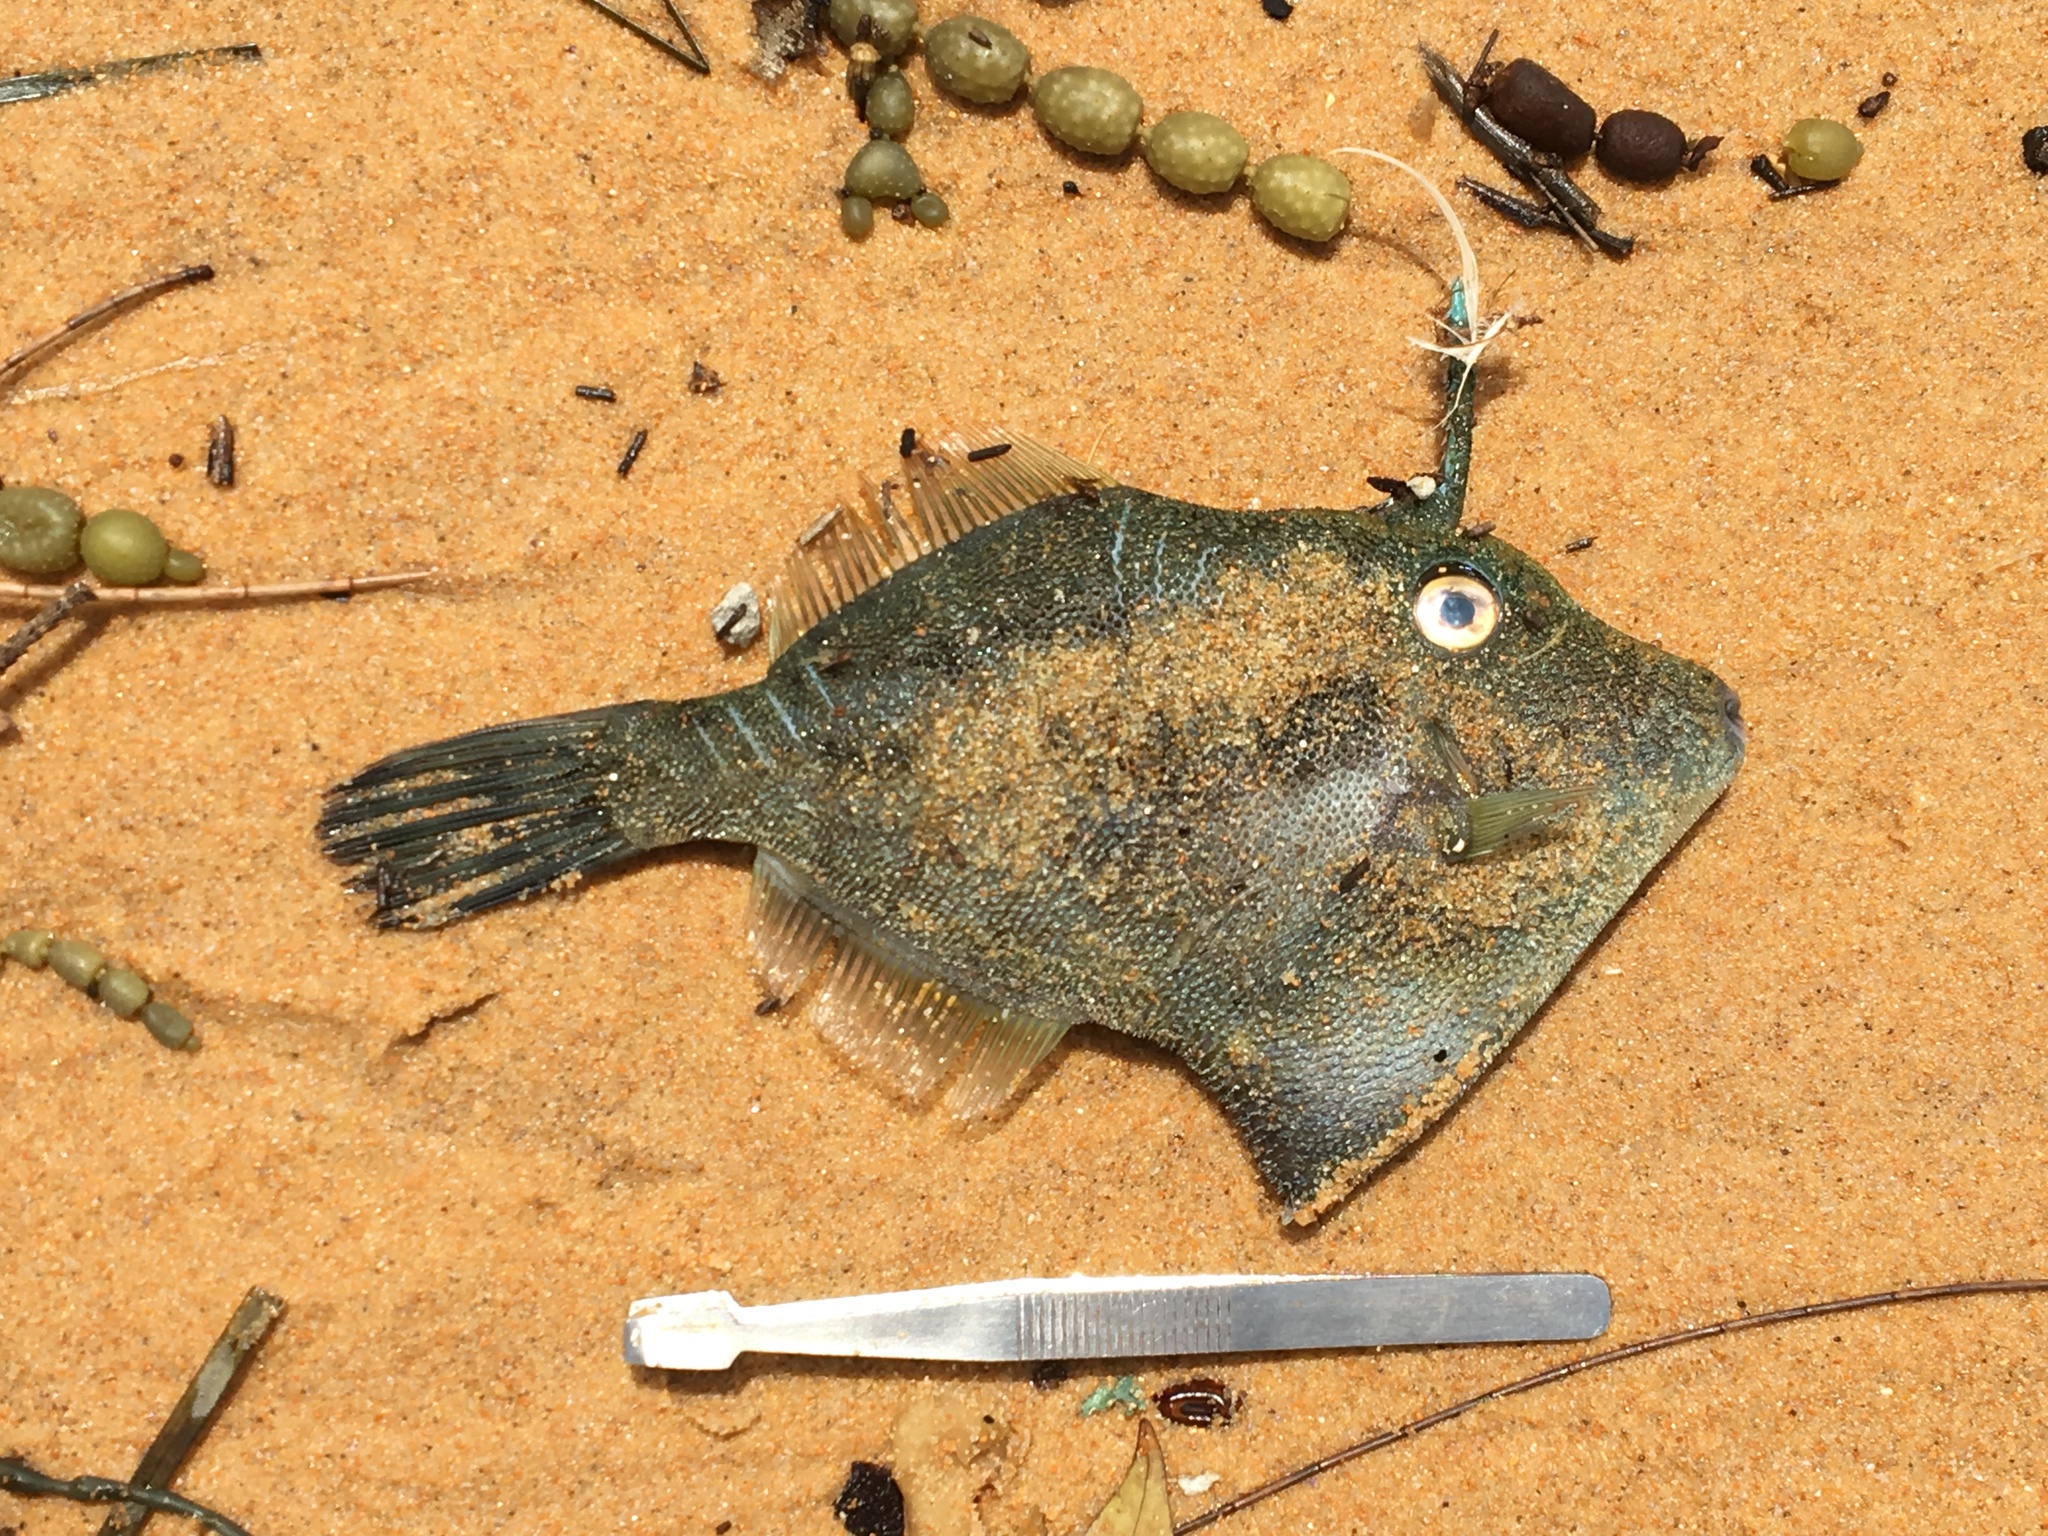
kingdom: Animalia
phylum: Chordata
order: Tetraodontiformes
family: Monacanthidae
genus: Scobinichthys
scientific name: Scobinichthys granulatus
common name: Rough leatherjacket
